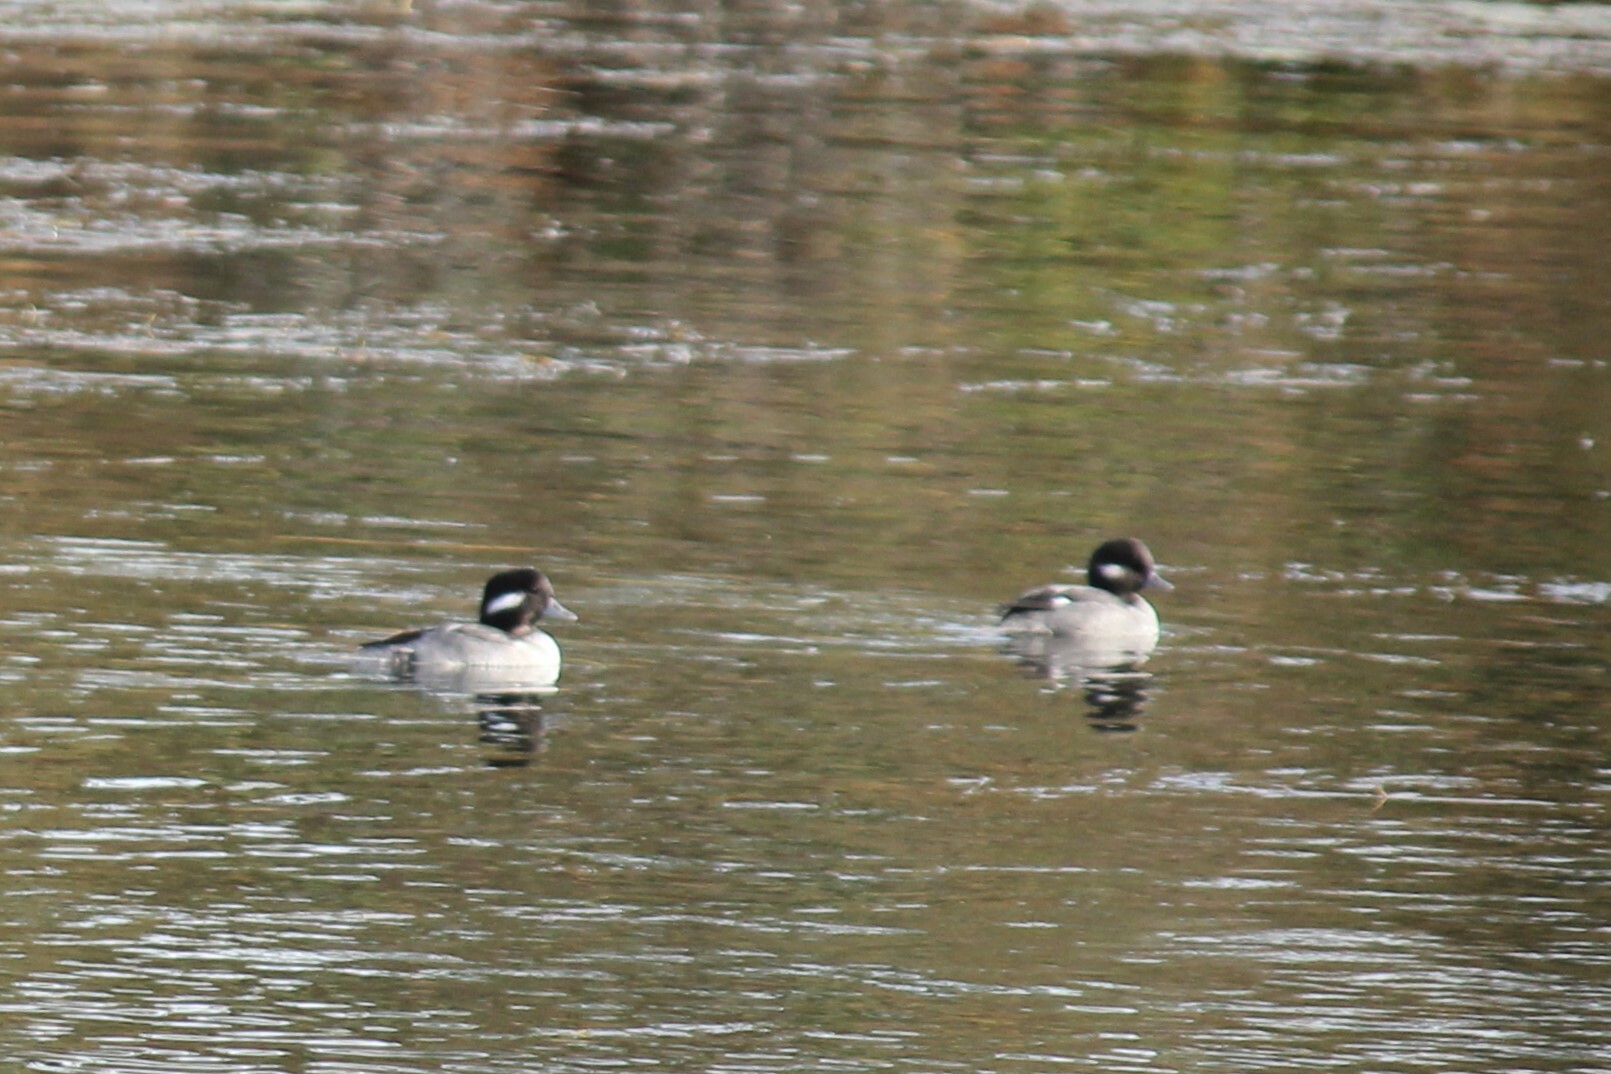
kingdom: Animalia
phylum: Chordata
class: Aves
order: Anseriformes
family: Anatidae
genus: Bucephala
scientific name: Bucephala albeola
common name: Bufflehead
